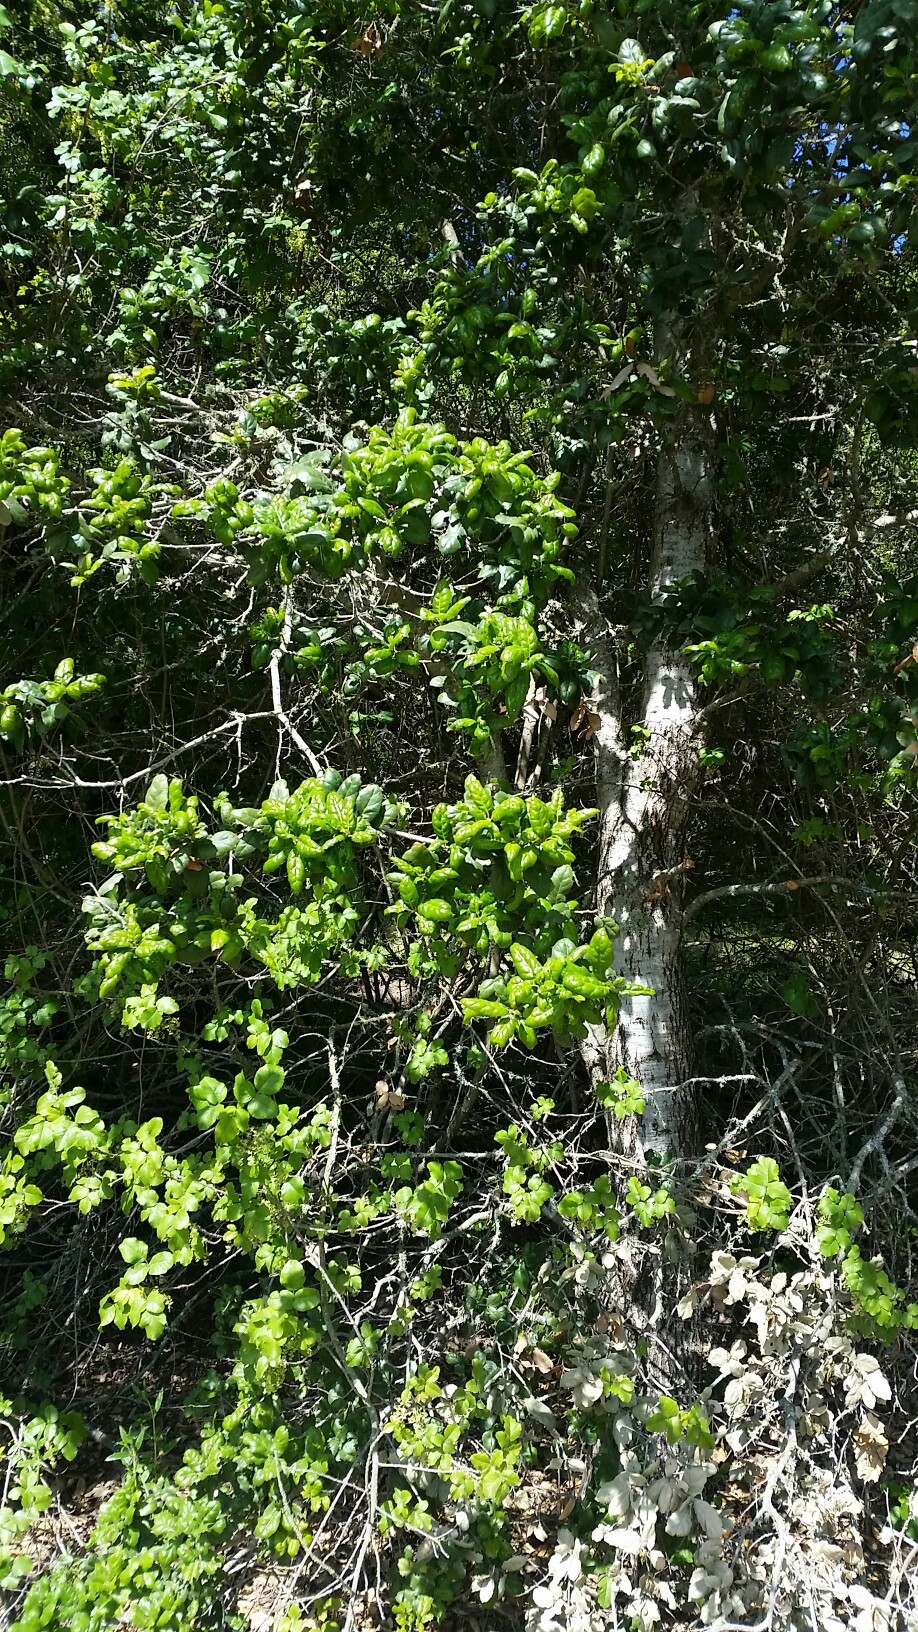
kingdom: Plantae
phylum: Tracheophyta
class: Magnoliopsida
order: Fagales
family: Fagaceae
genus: Quercus
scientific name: Quercus agrifolia
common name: California live oak
